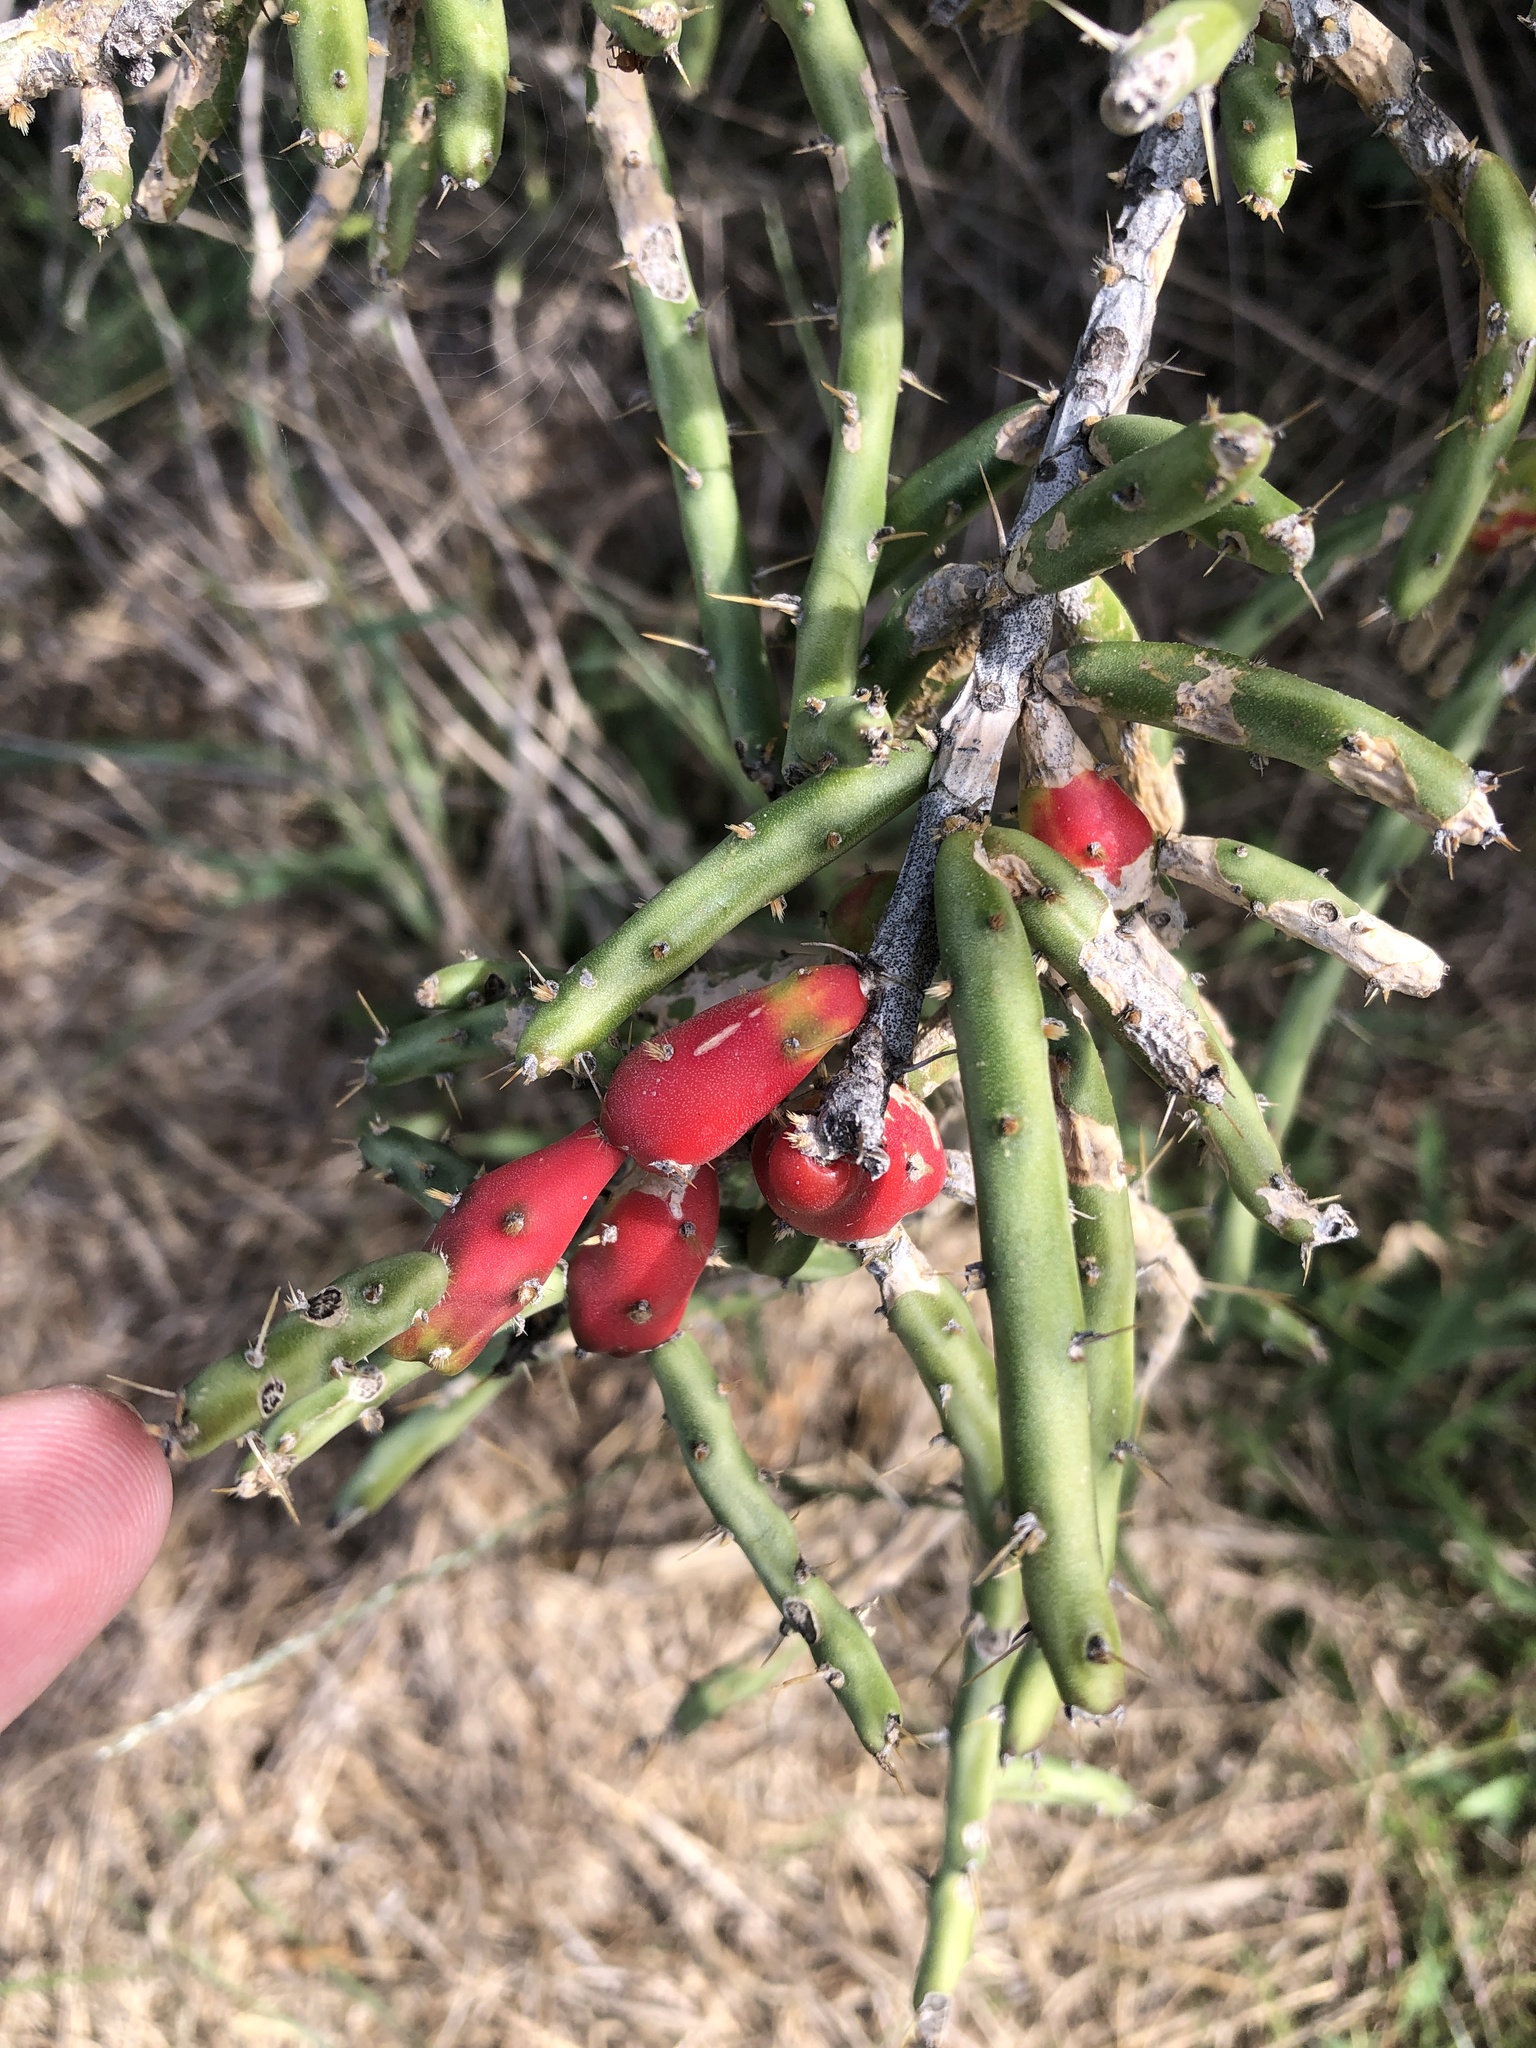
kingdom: Plantae
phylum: Tracheophyta
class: Magnoliopsida
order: Caryophyllales
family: Cactaceae
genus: Cylindropuntia
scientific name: Cylindropuntia leptocaulis
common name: Christmas cactus
